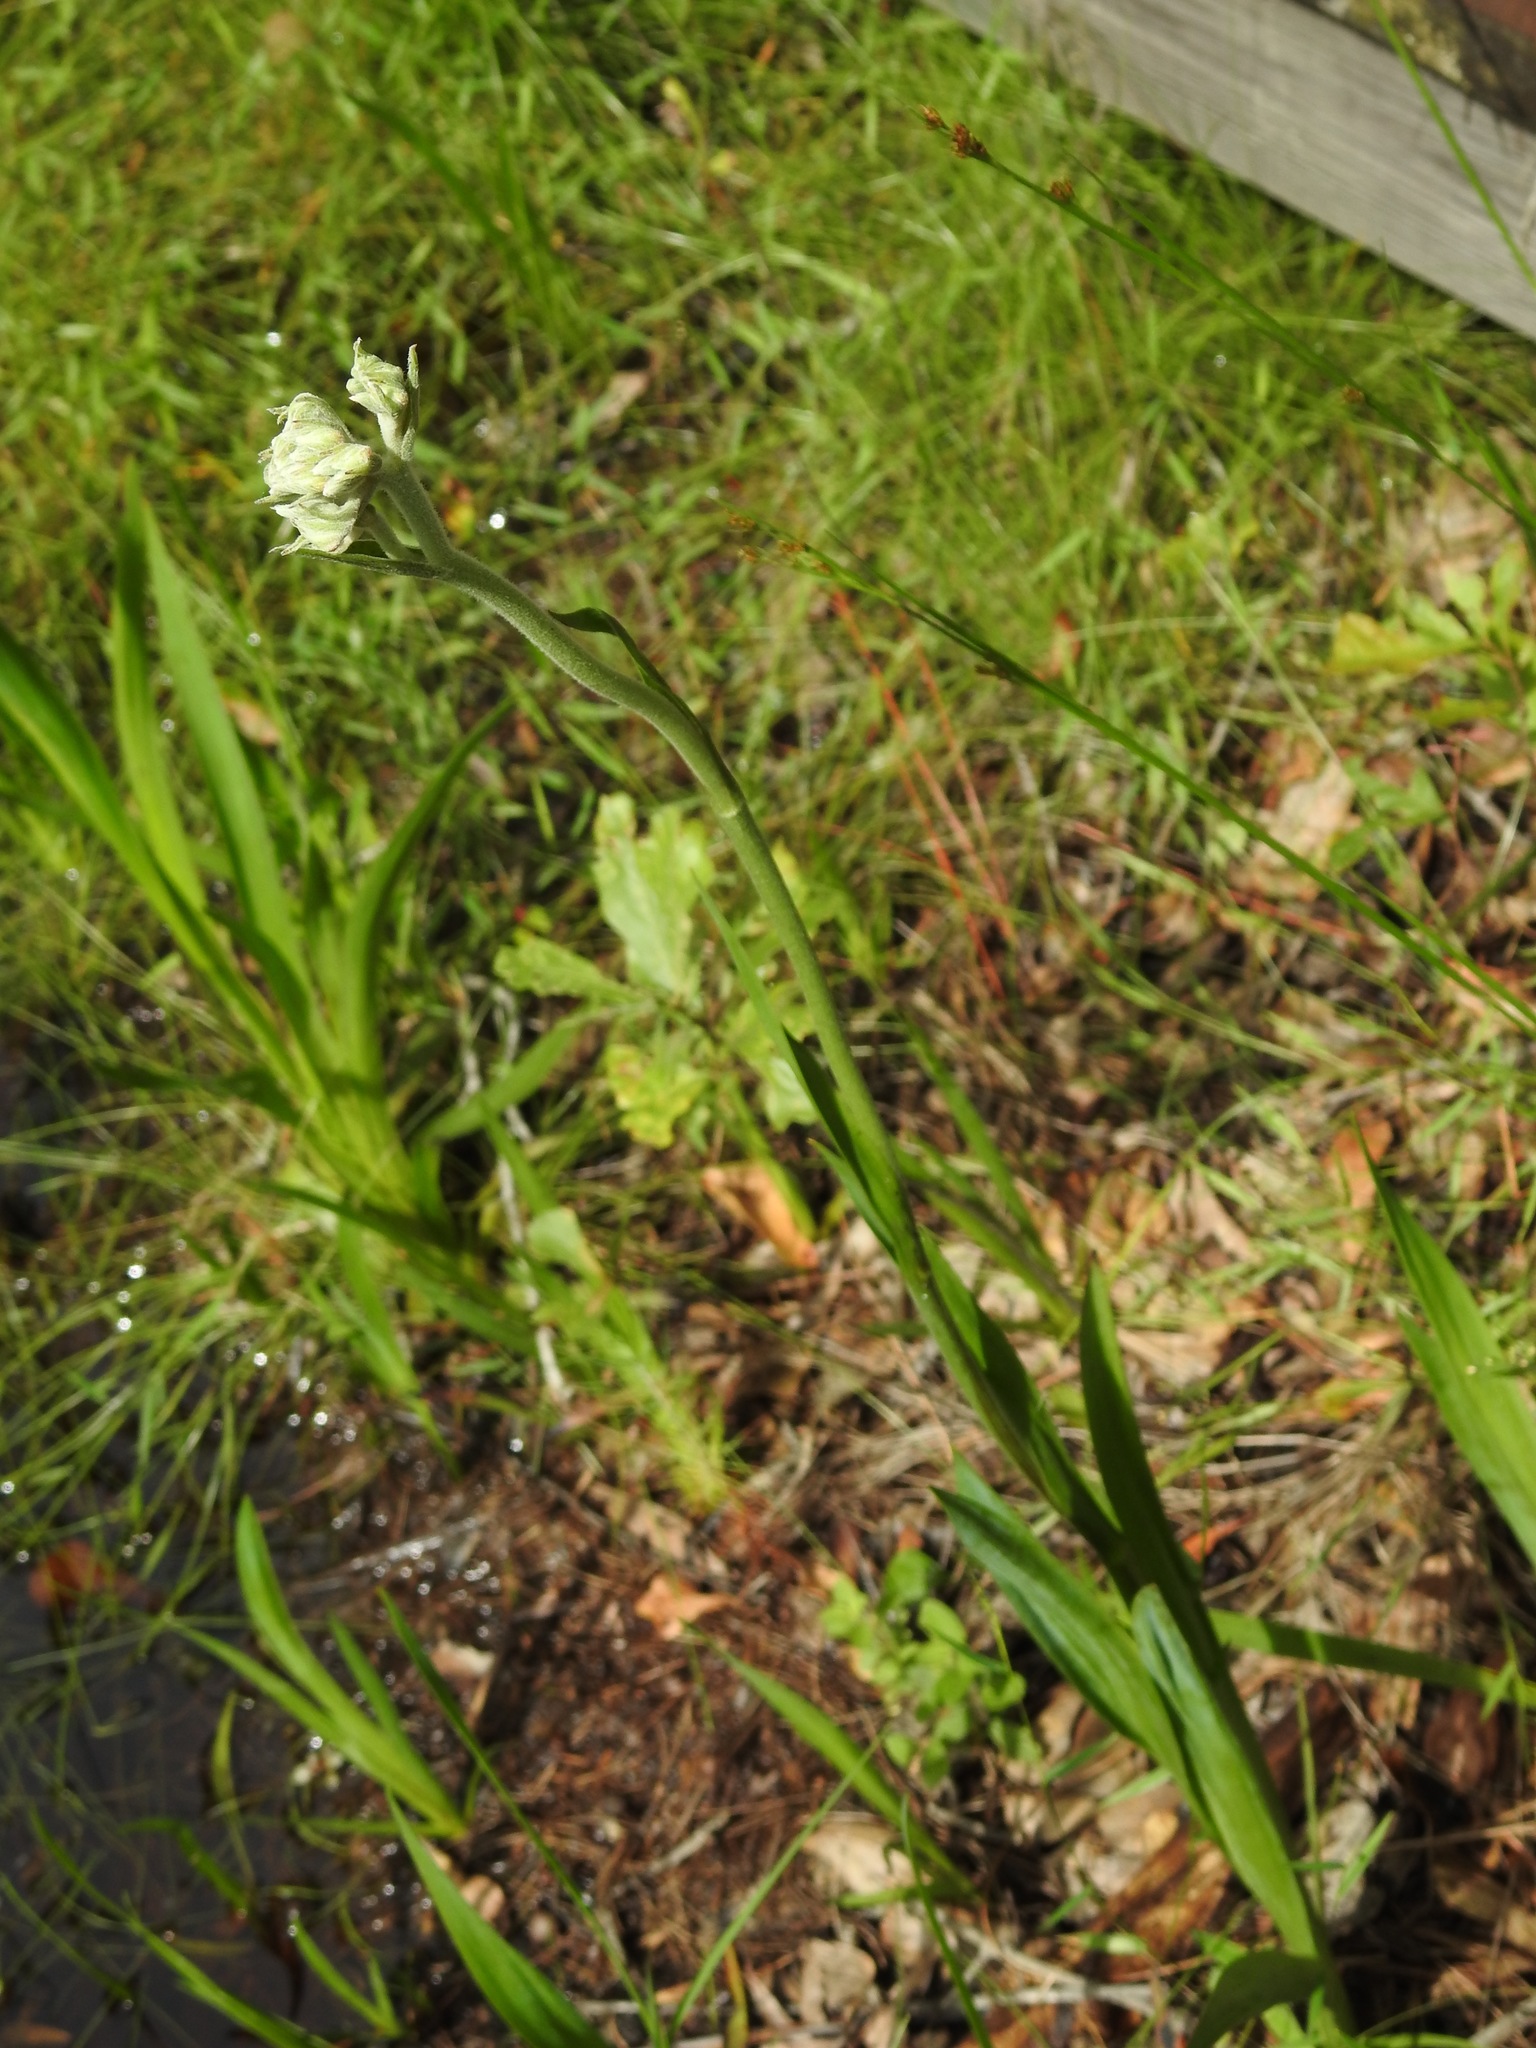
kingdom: Plantae
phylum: Tracheophyta
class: Liliopsida
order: Commelinales
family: Haemodoraceae
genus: Lachnanthes
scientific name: Lachnanthes caroliana
